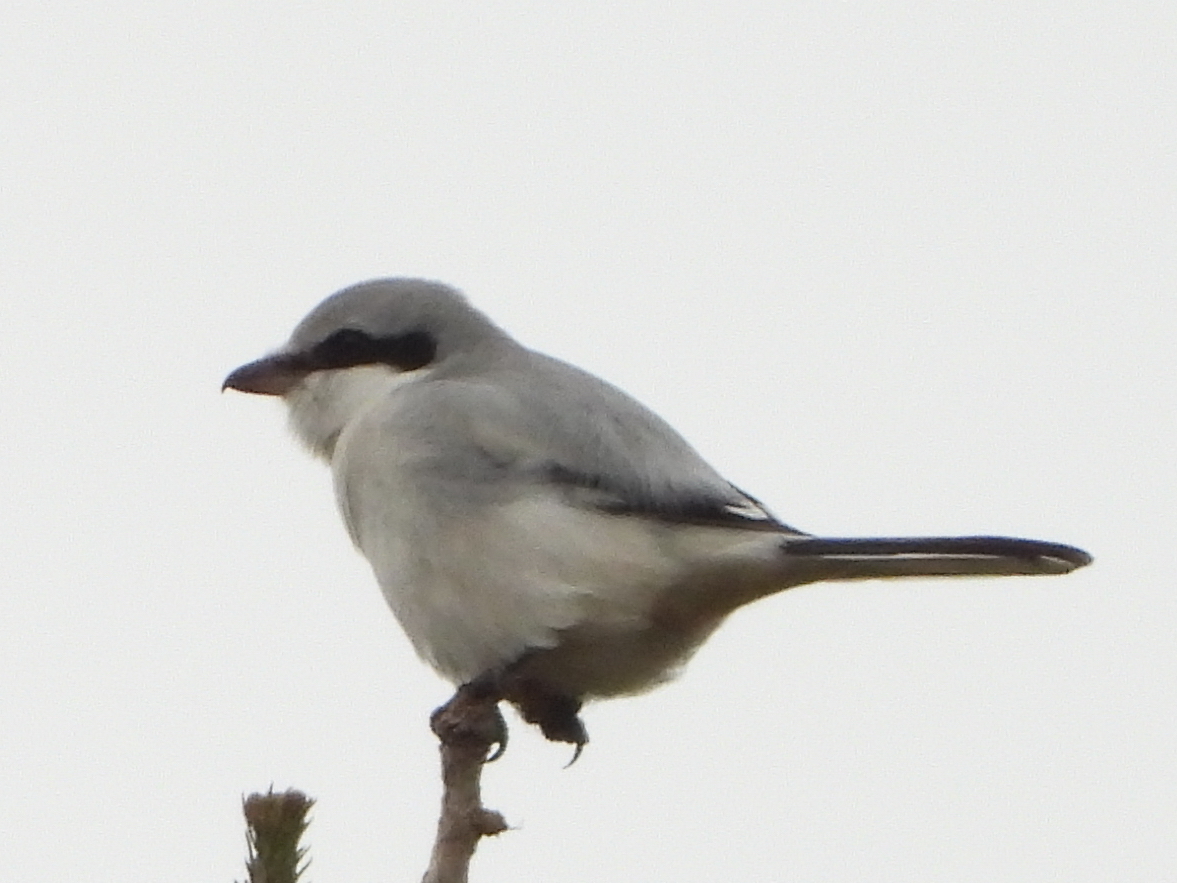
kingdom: Animalia
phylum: Chordata
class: Aves
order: Passeriformes
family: Laniidae
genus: Lanius
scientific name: Lanius excubitor
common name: Great grey shrike
